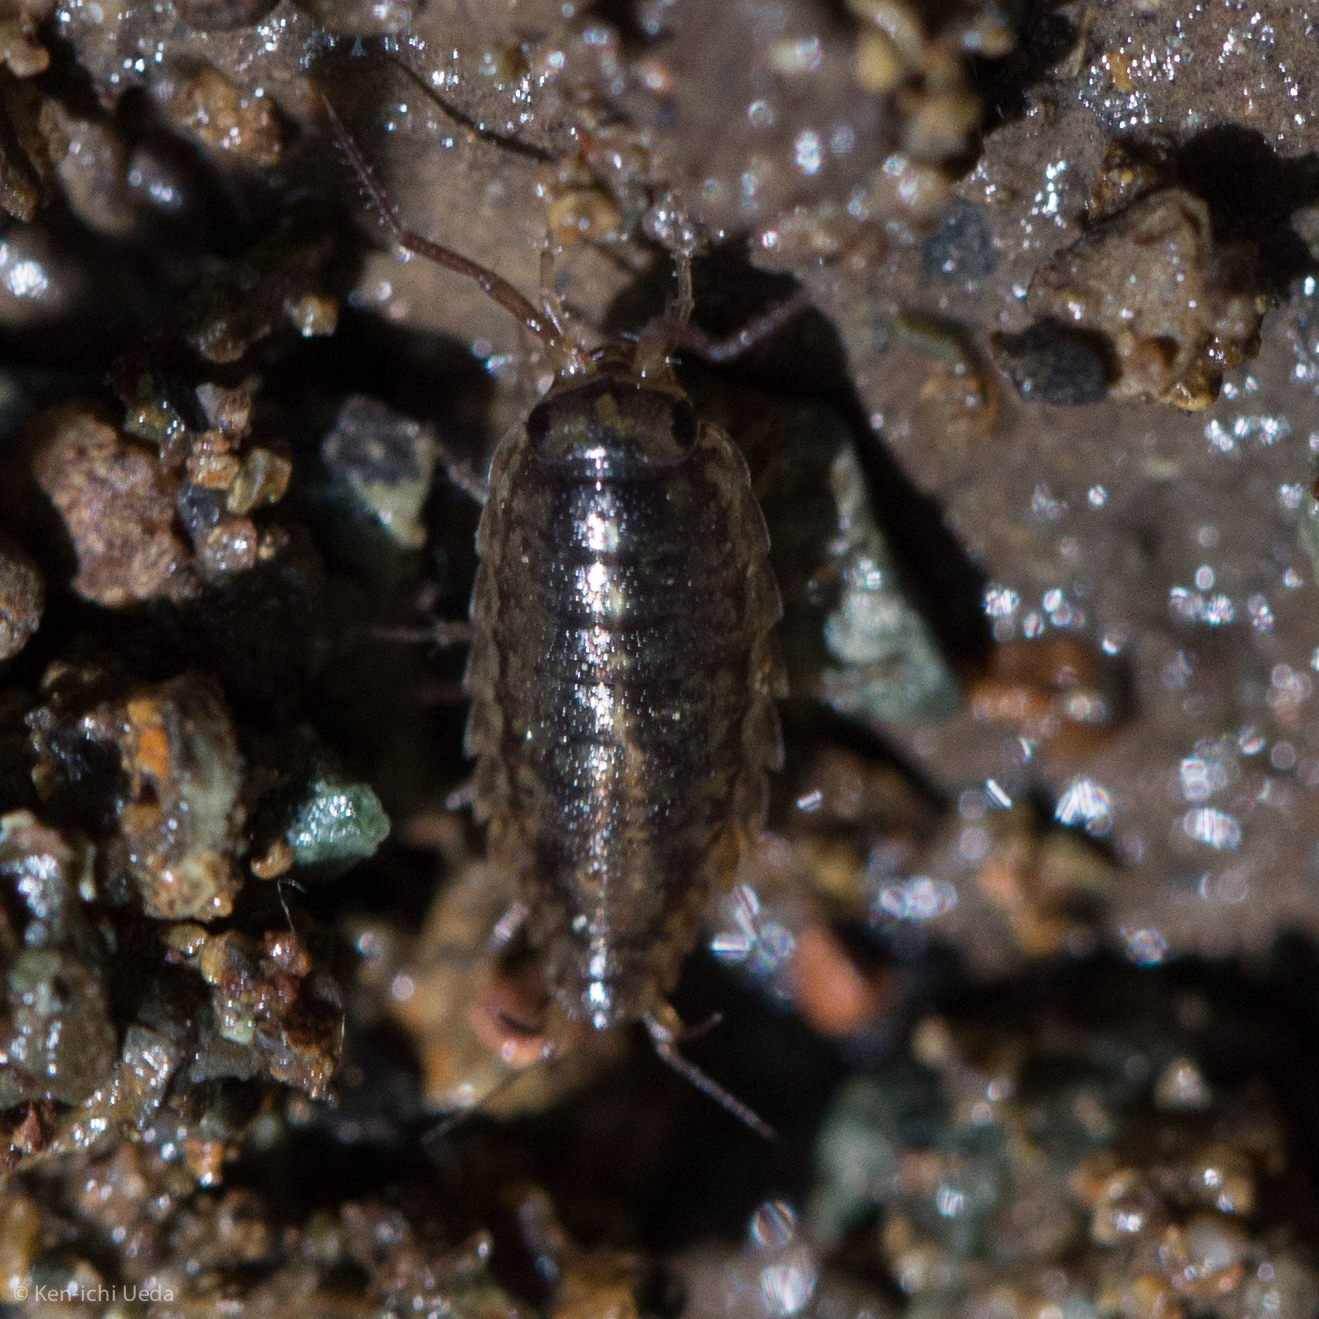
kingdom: Animalia
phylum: Arthropoda
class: Malacostraca
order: Isopoda
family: Ligiidae
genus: Ligidium
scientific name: Ligidium latum
